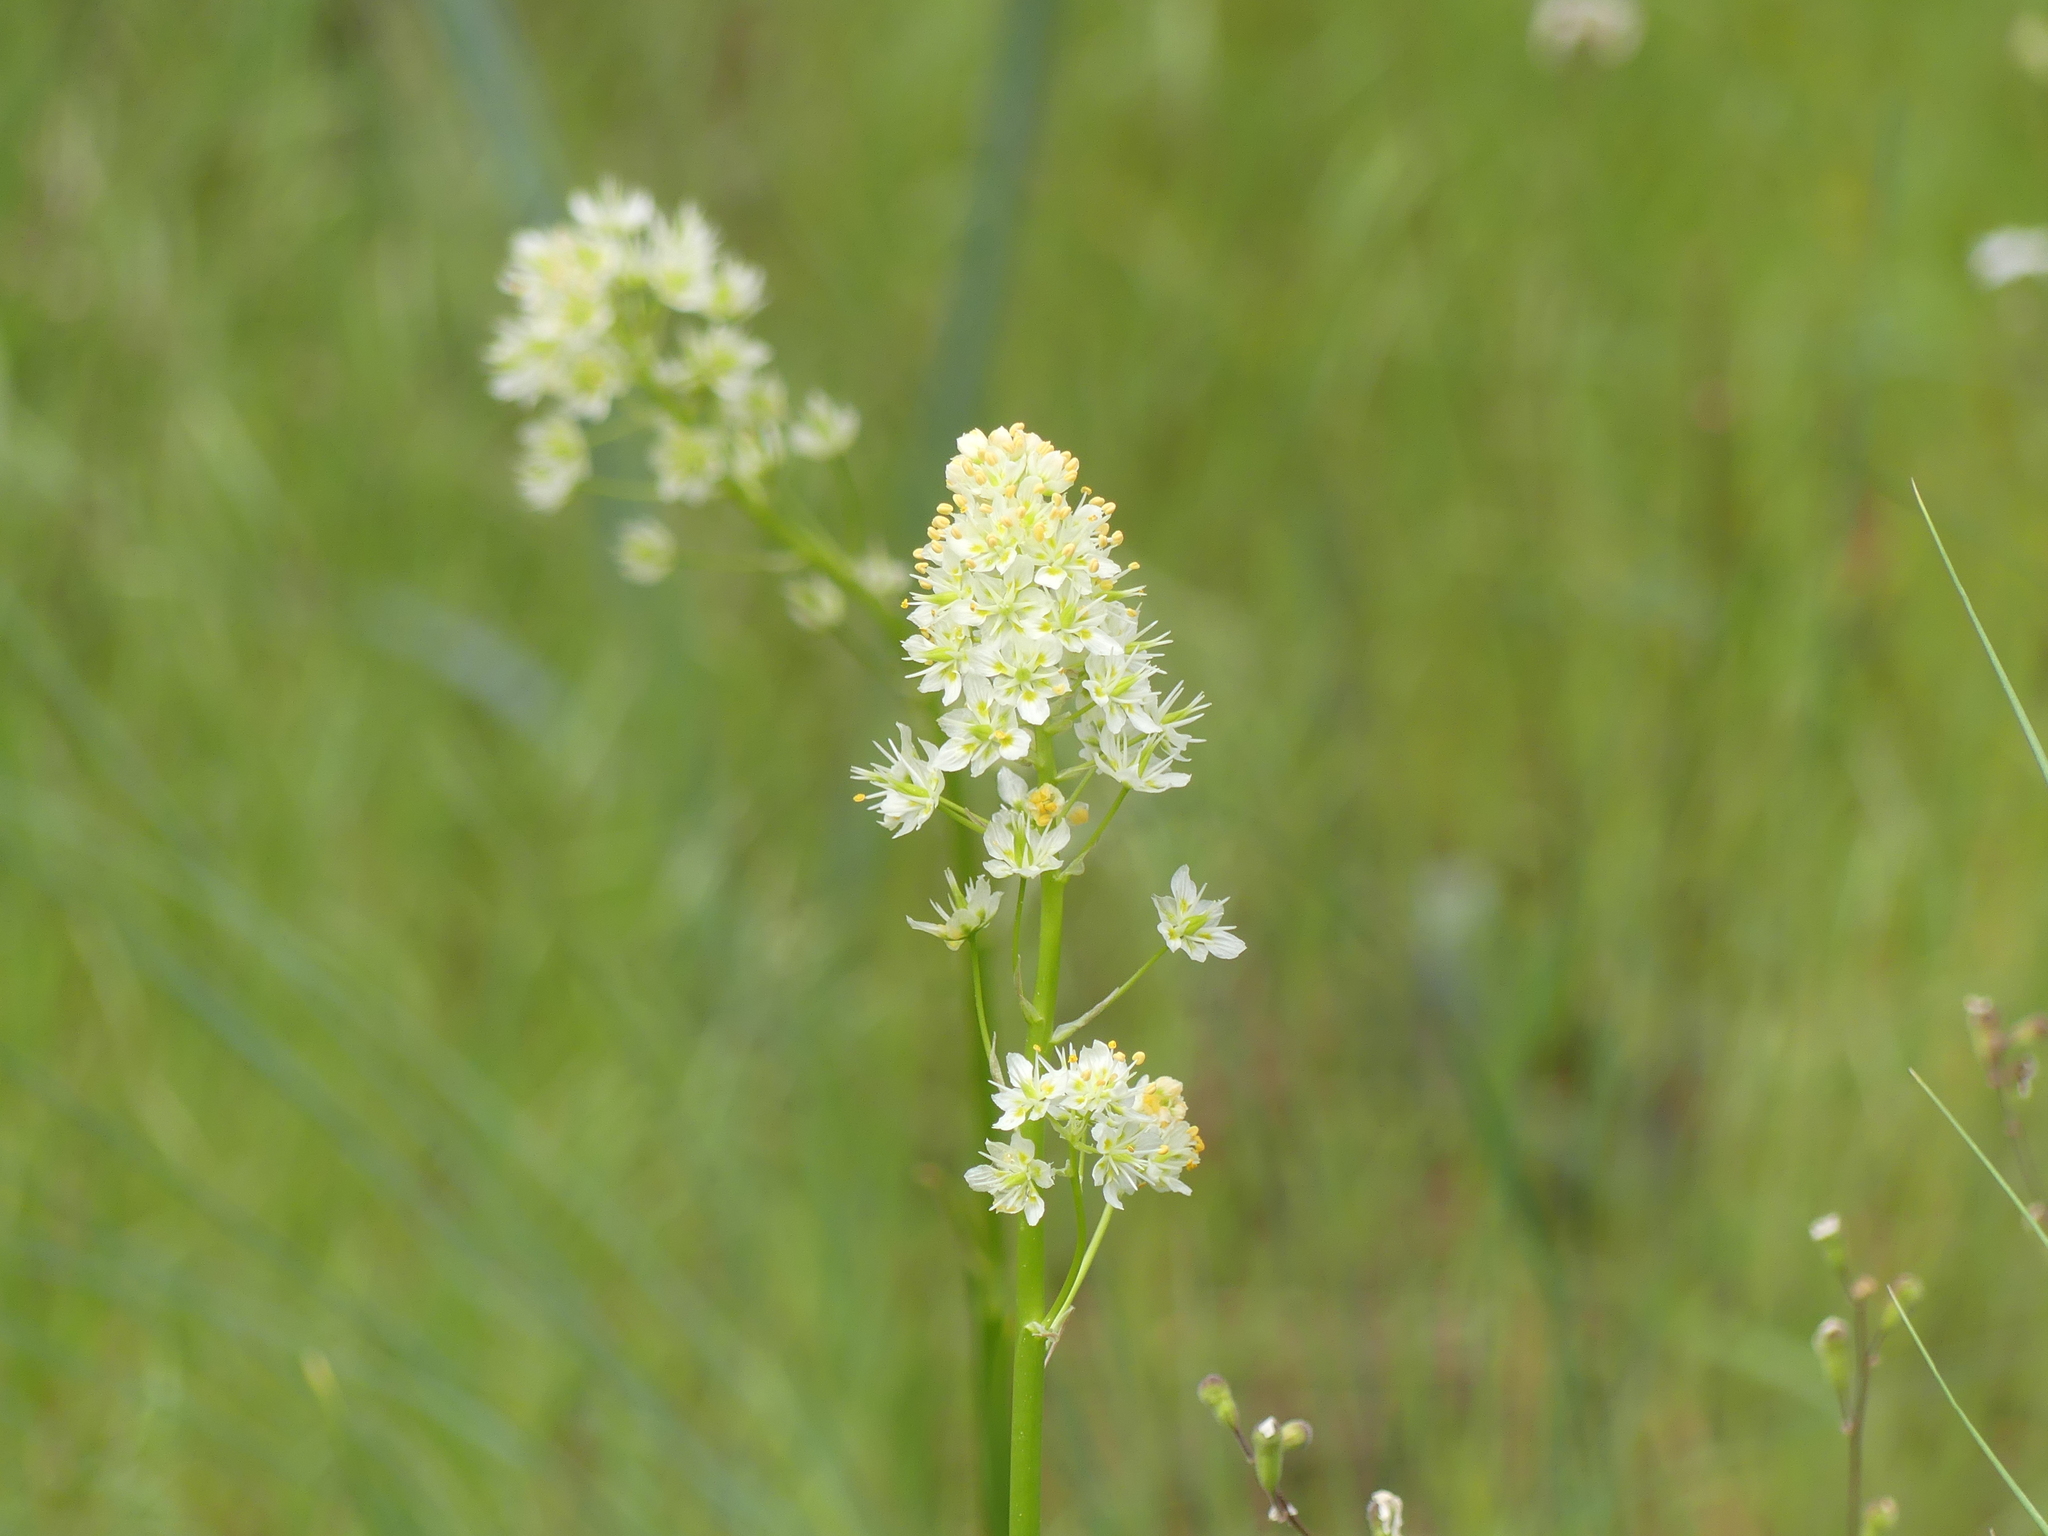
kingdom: Plantae
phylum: Tracheophyta
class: Liliopsida
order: Liliales
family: Melanthiaceae
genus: Toxicoscordion
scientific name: Toxicoscordion venenosum
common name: Meadow death camas
